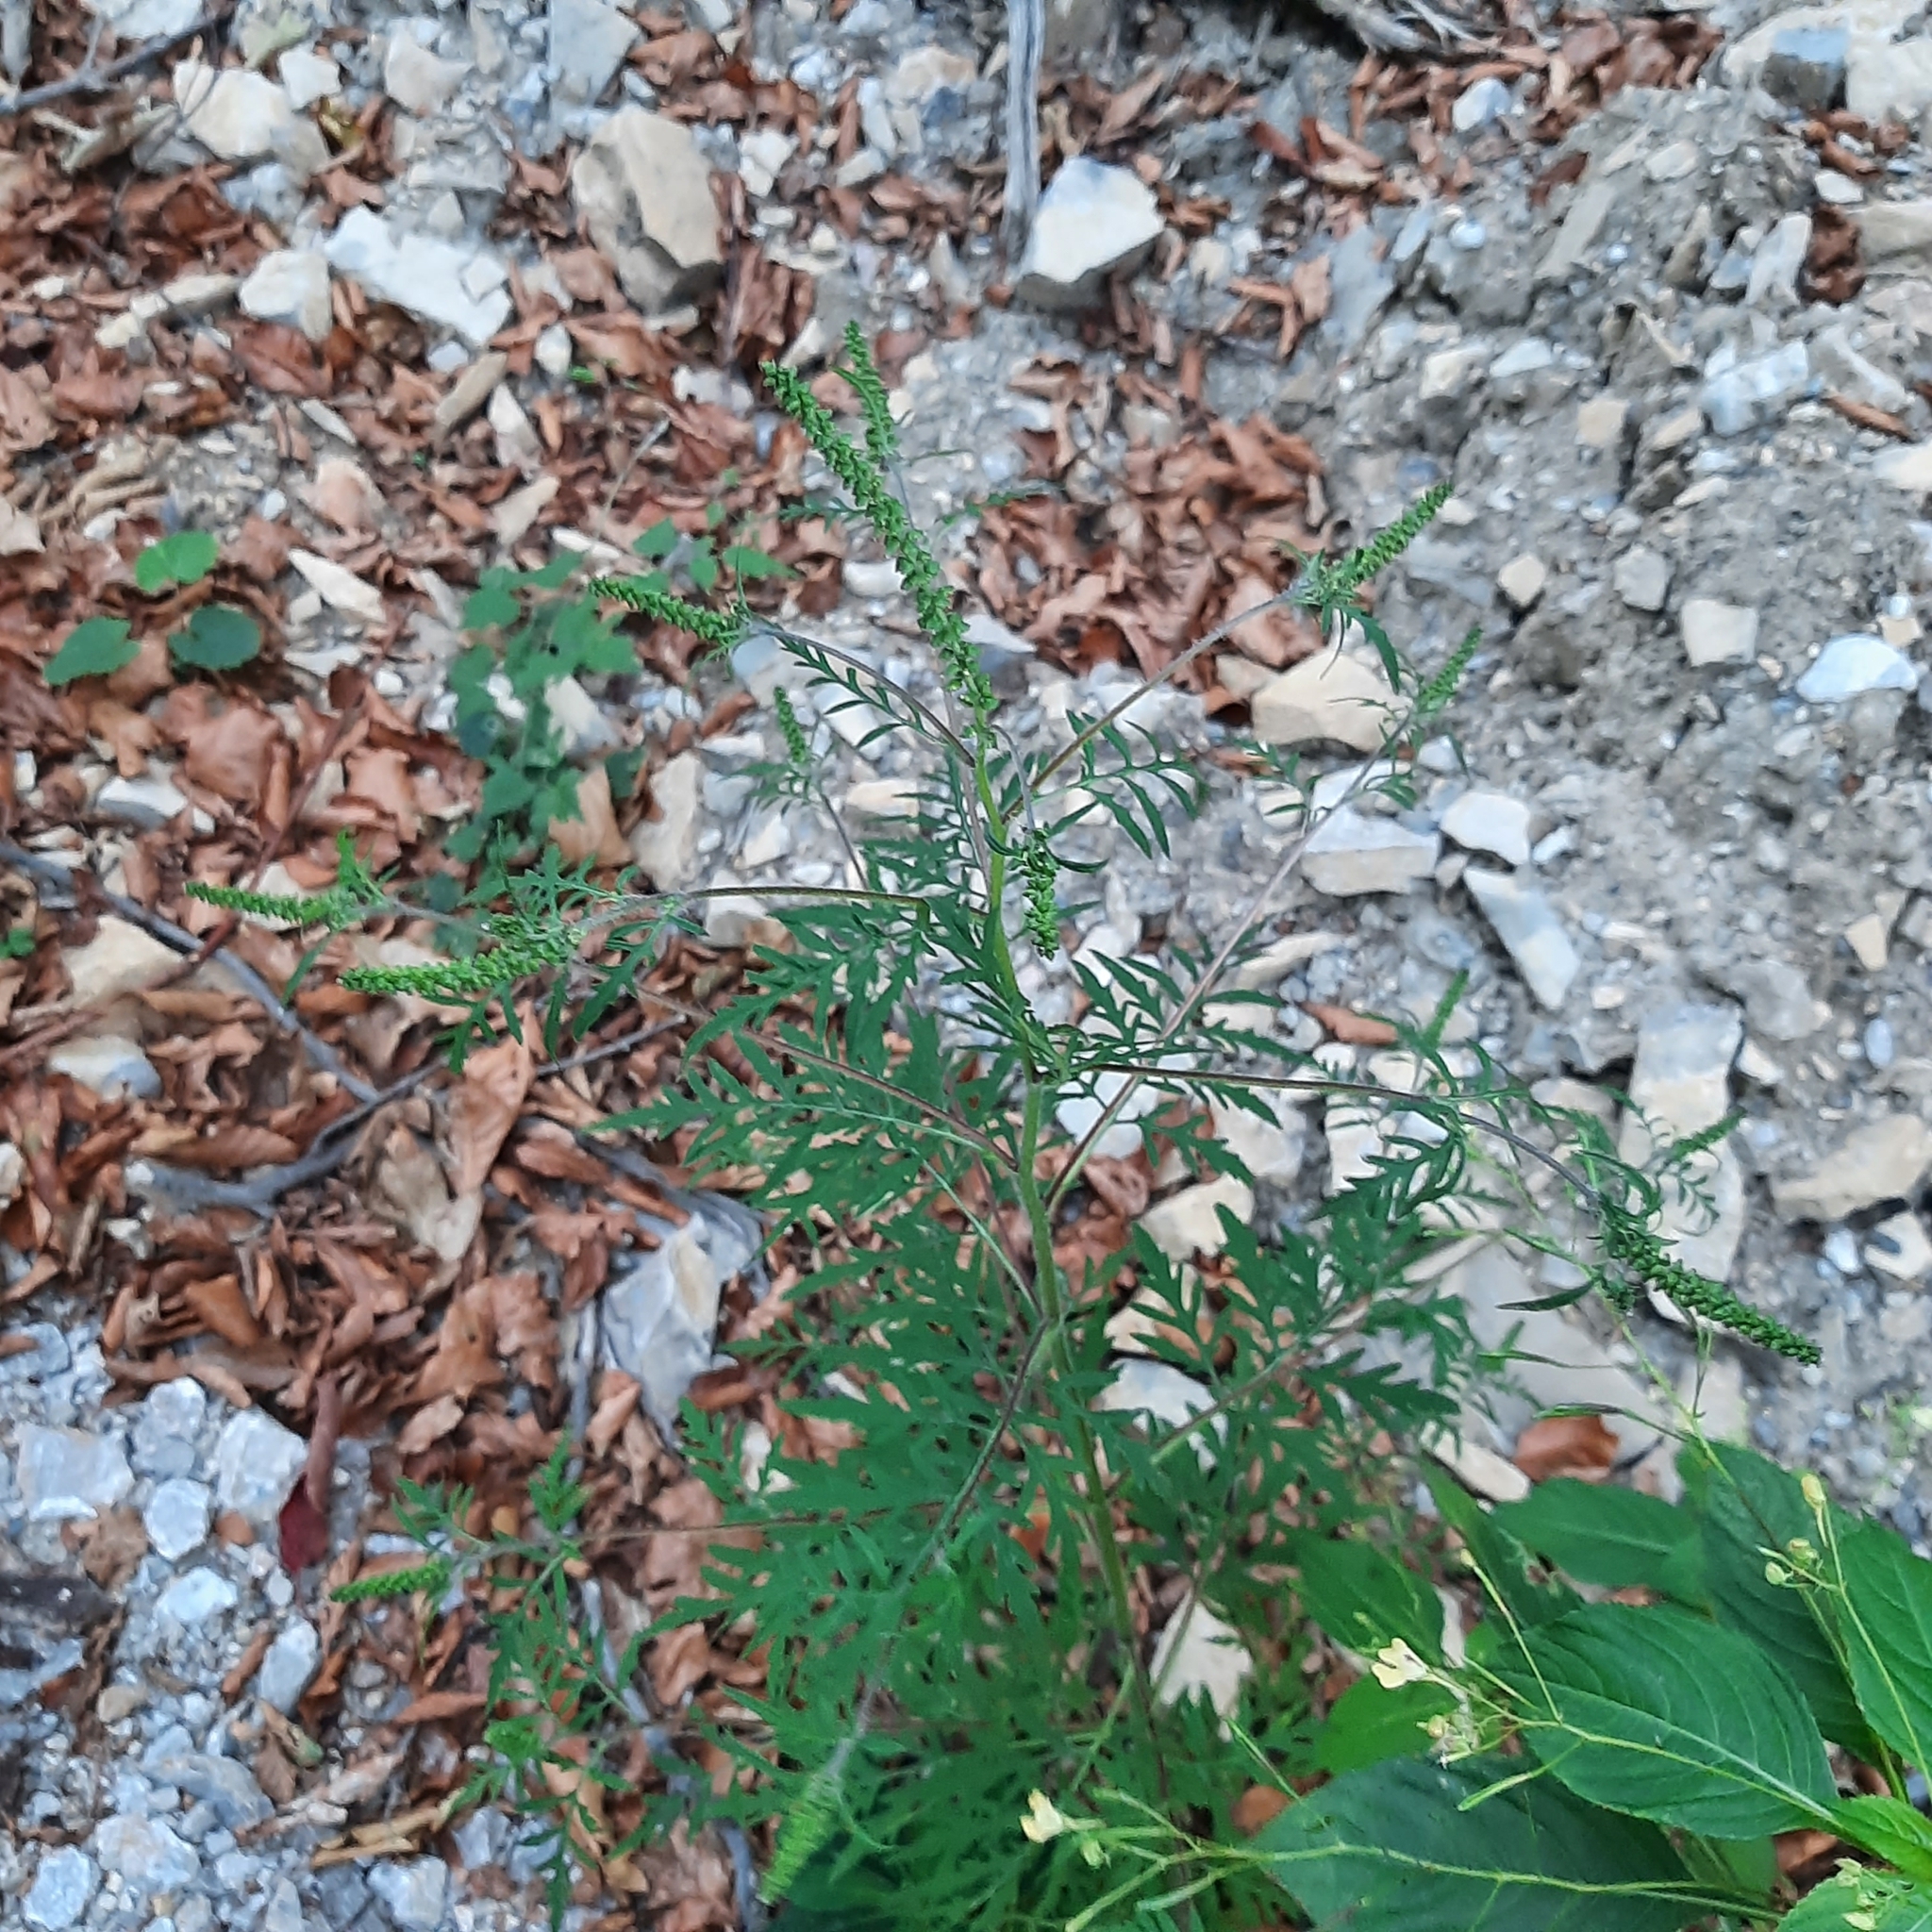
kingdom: Plantae
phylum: Tracheophyta
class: Magnoliopsida
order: Asterales
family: Asteraceae
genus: Ambrosia
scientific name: Ambrosia artemisiifolia
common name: Annual ragweed
